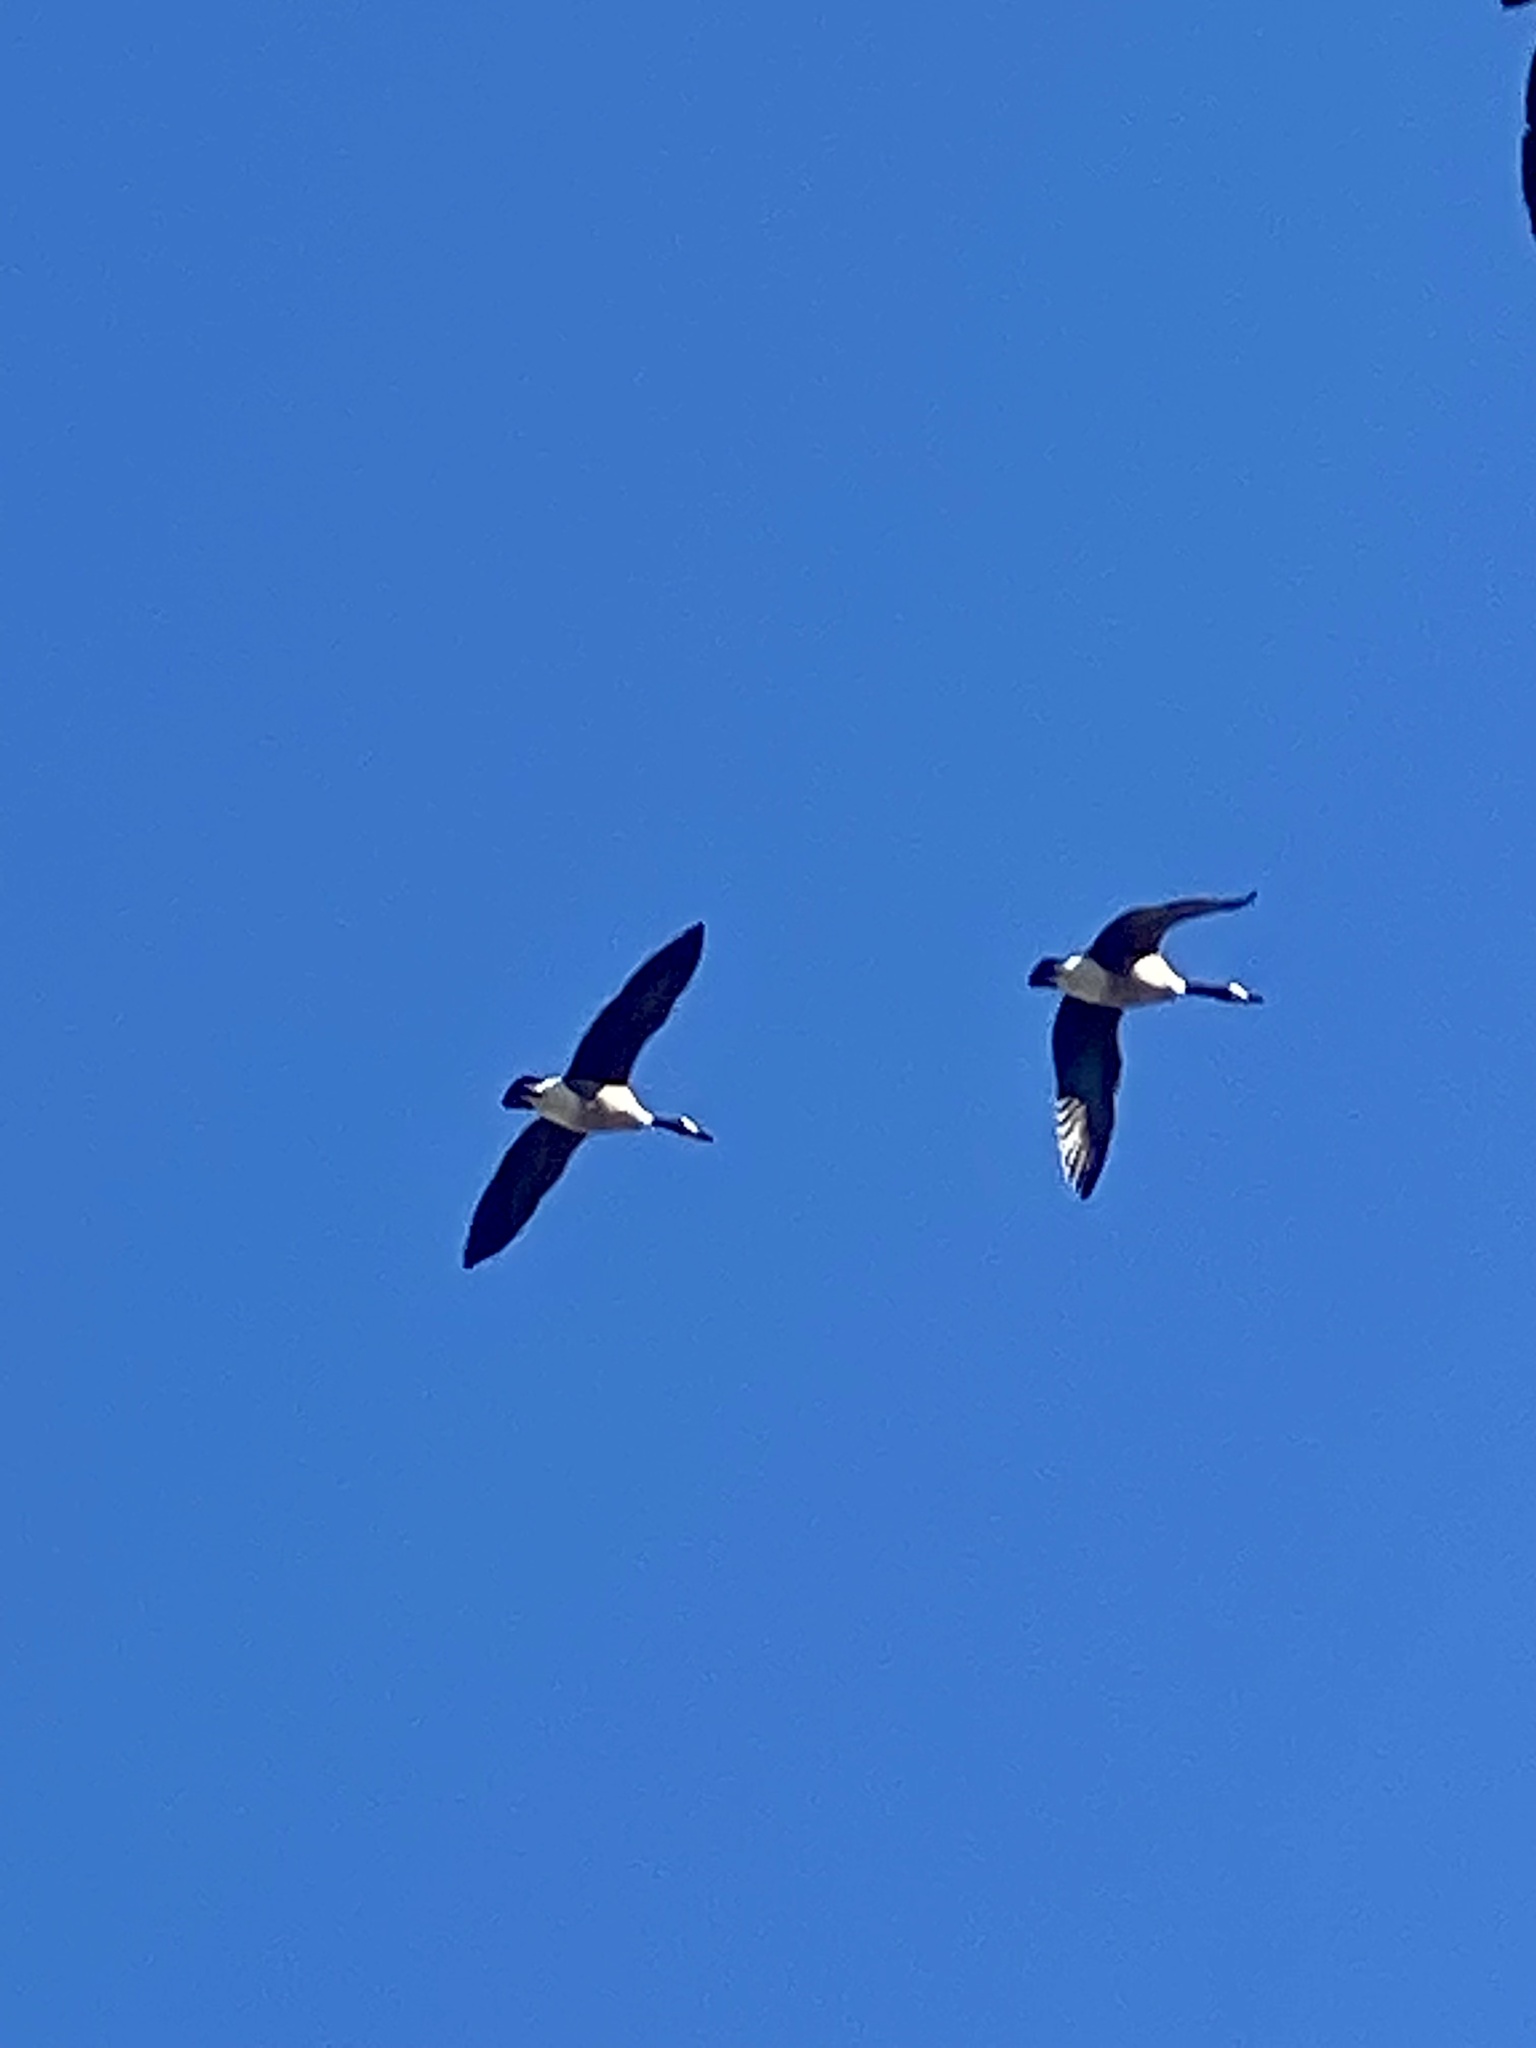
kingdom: Animalia
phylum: Chordata
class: Aves
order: Anseriformes
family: Anatidae
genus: Branta
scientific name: Branta canadensis
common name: Canada goose
